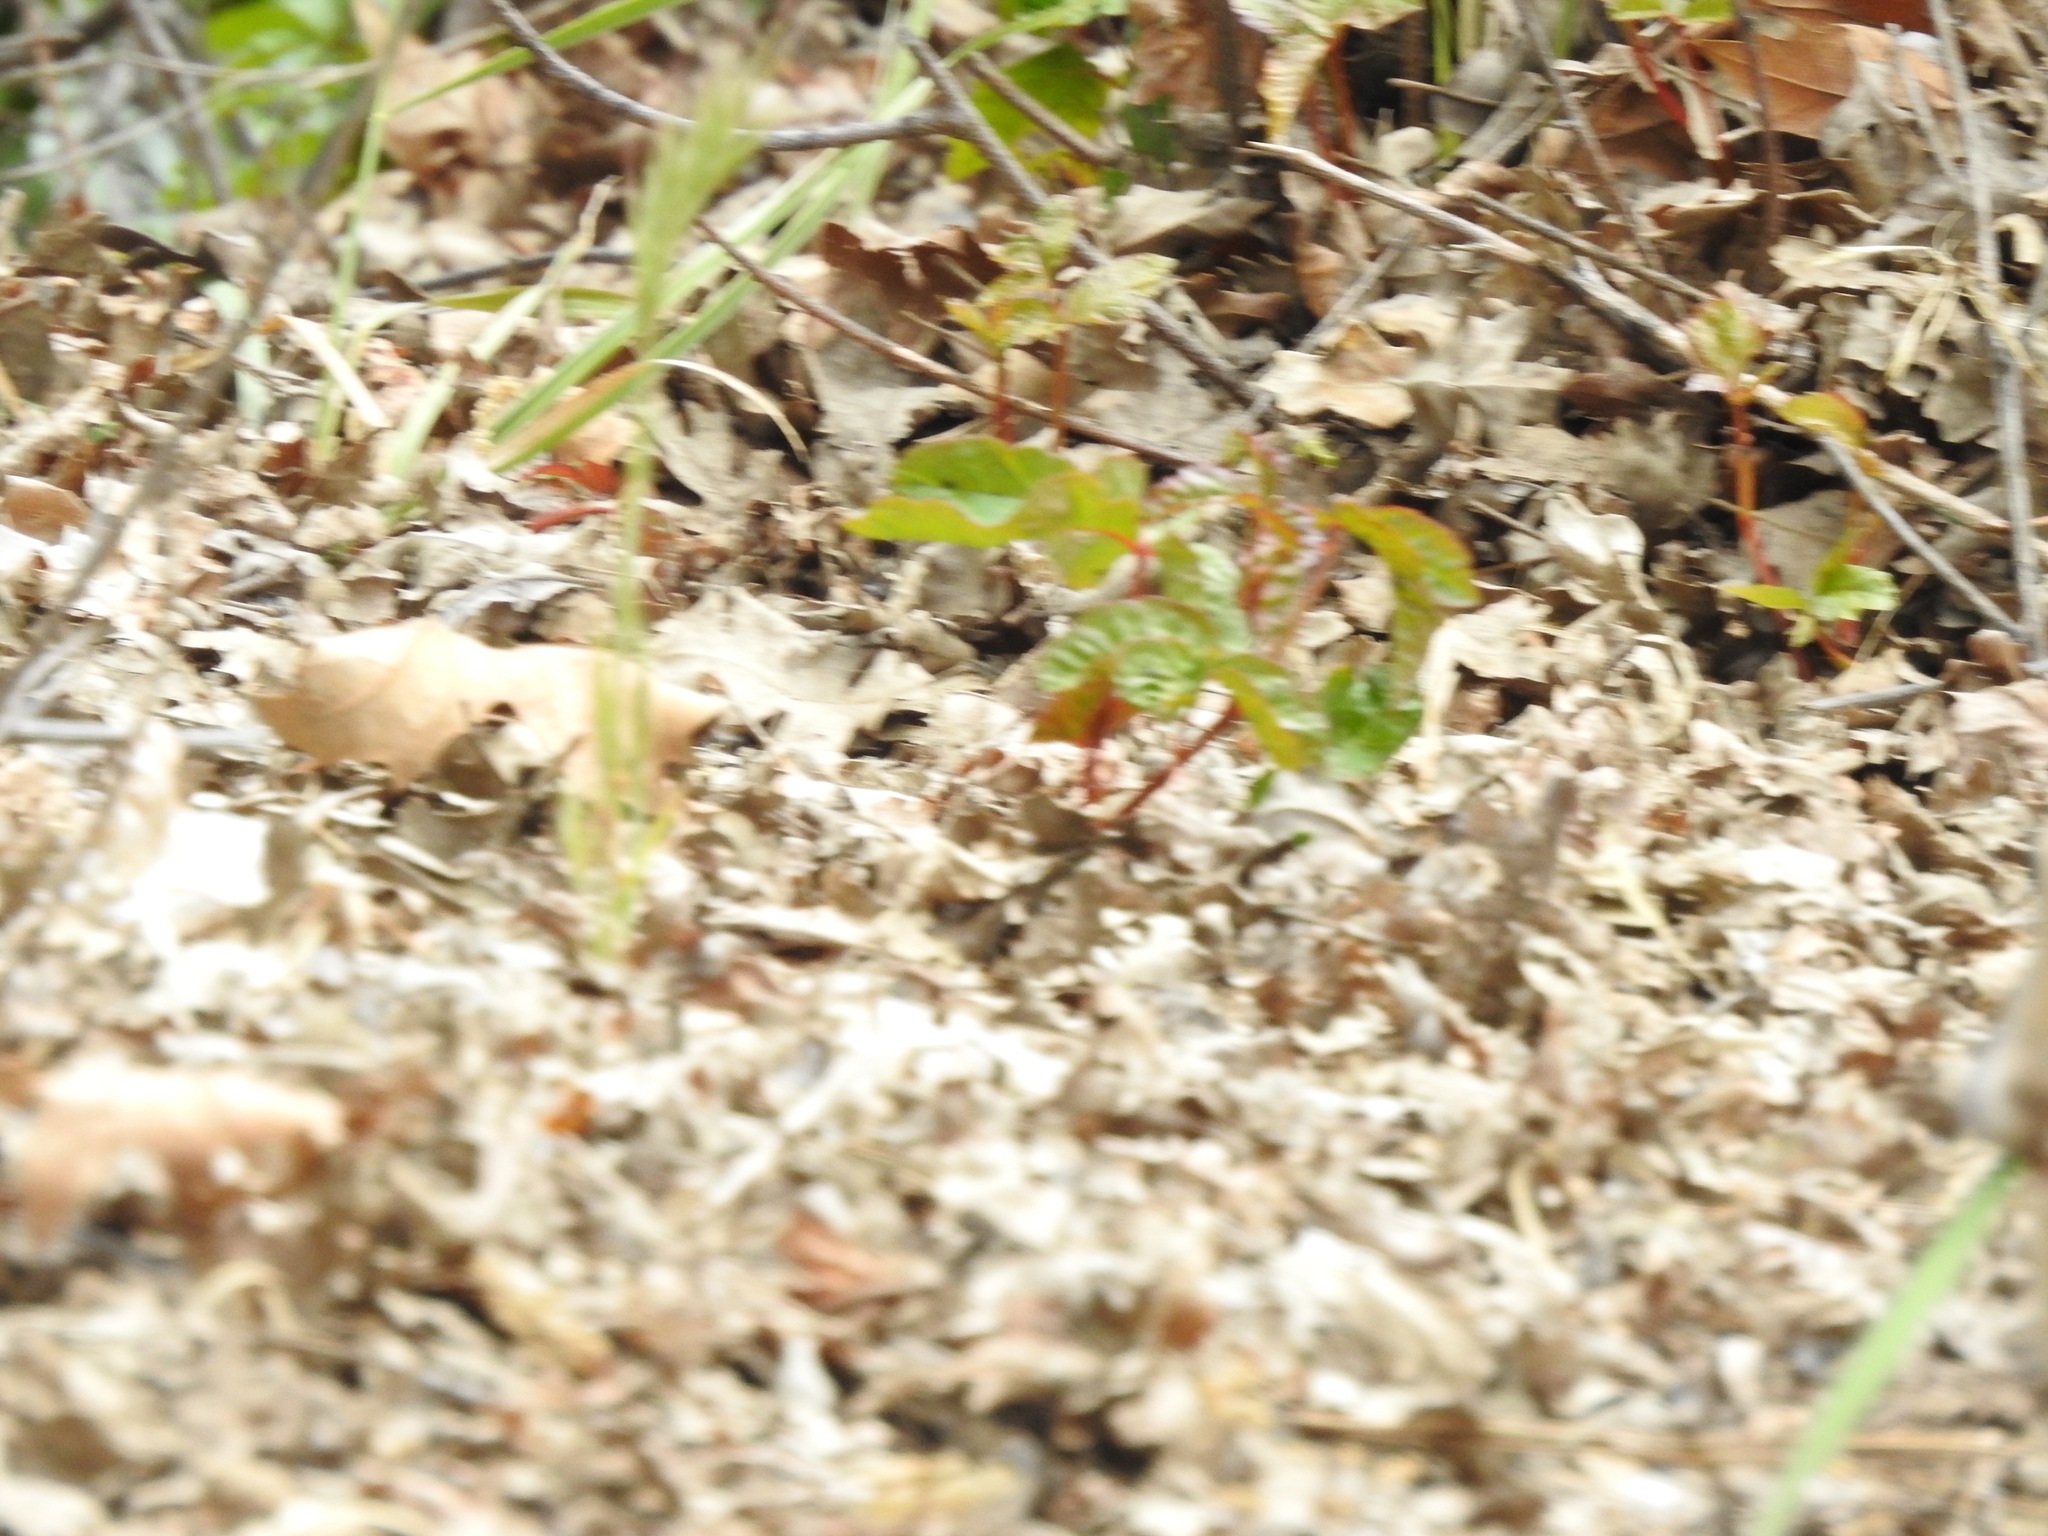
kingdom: Plantae
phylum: Tracheophyta
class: Magnoliopsida
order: Sapindales
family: Anacardiaceae
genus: Toxicodendron
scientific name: Toxicodendron diversilobum
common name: Pacific poison-oak
